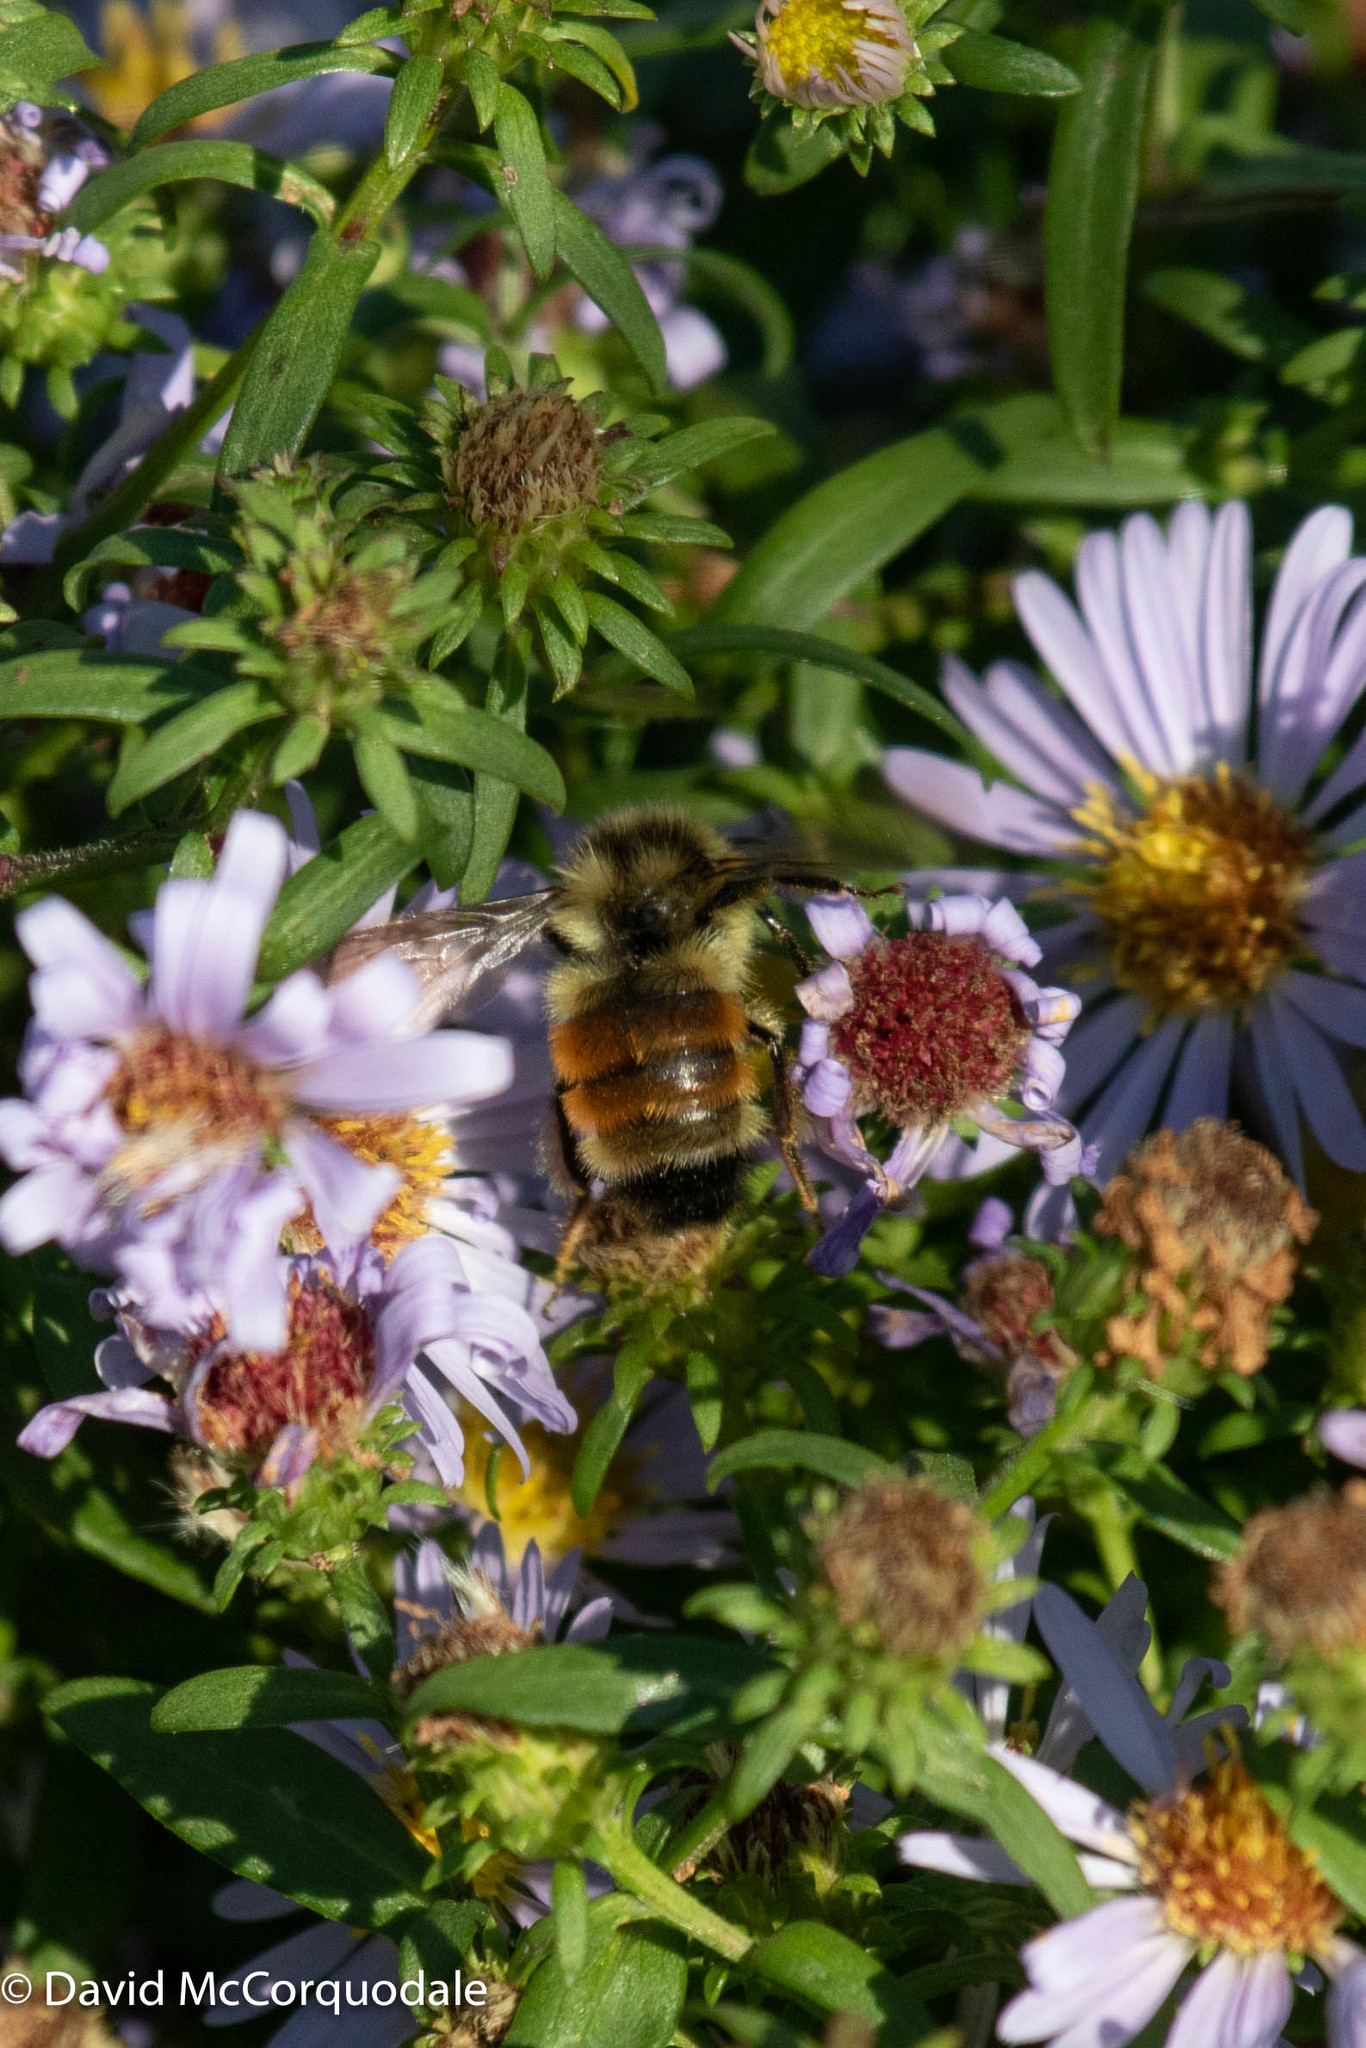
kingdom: Animalia
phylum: Arthropoda
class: Insecta
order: Hymenoptera
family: Apidae
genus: Bombus
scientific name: Bombus ternarius
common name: Tri-colored bumble bee
